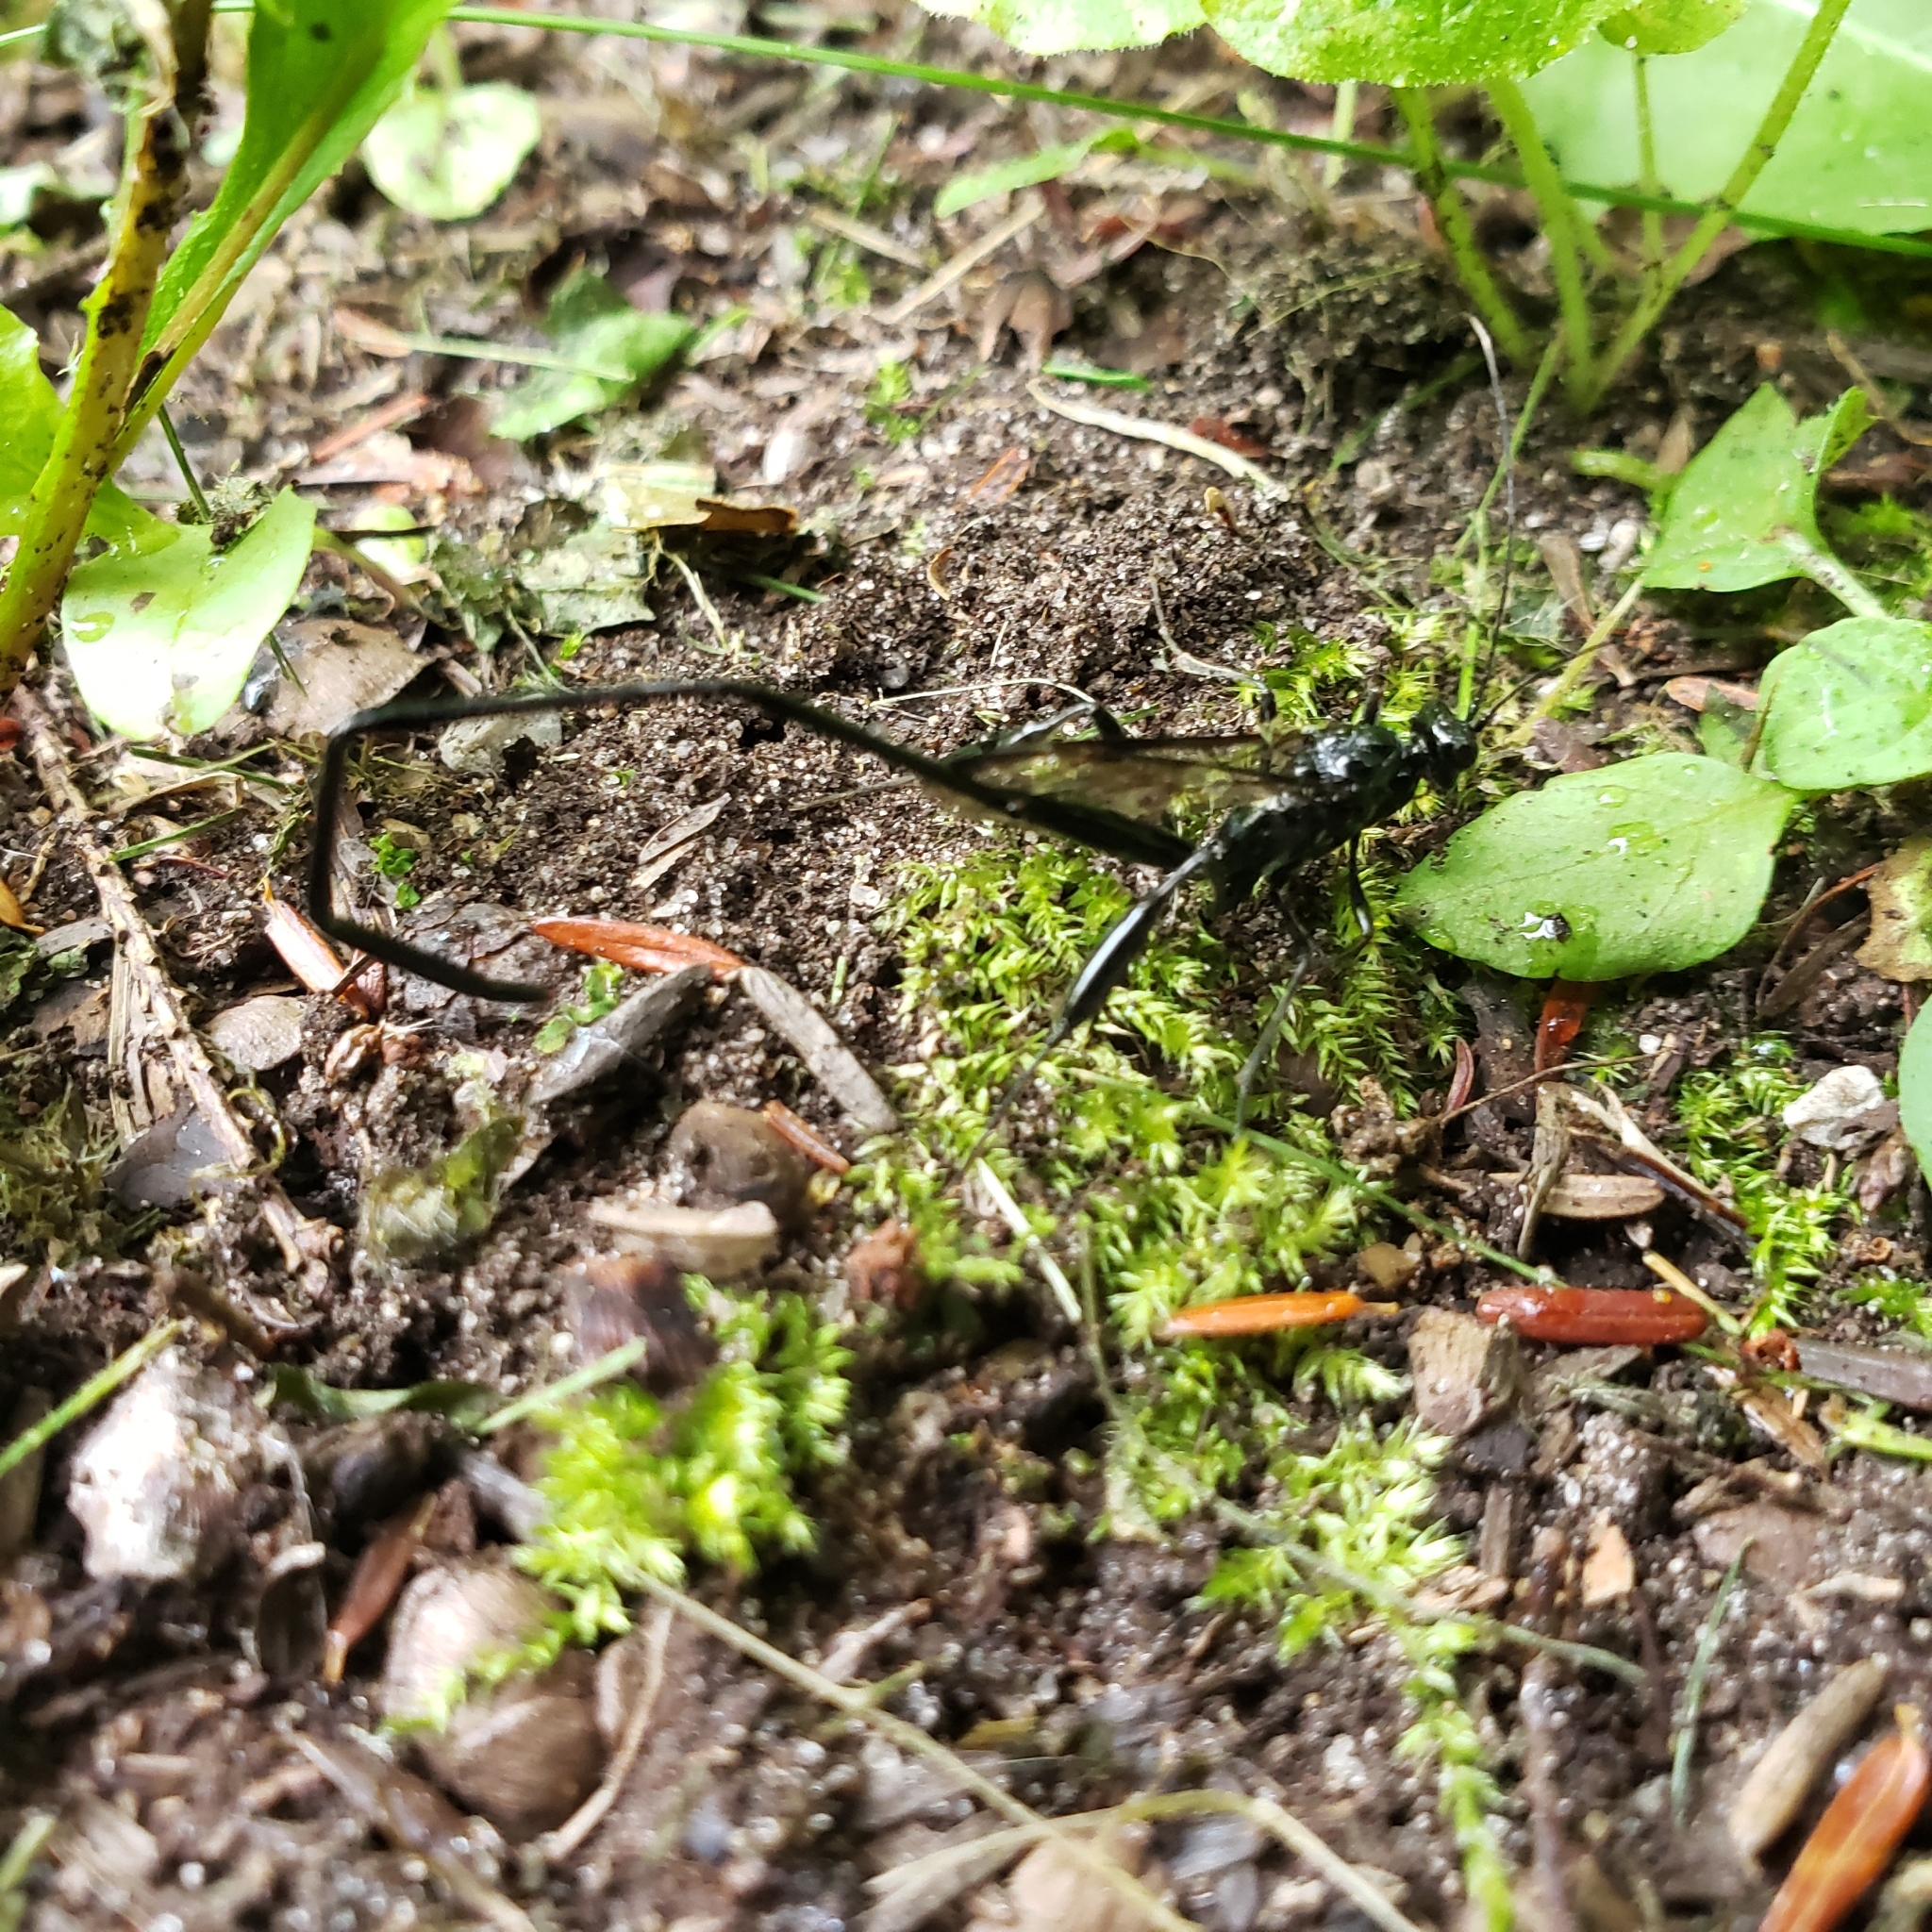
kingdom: Animalia
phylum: Arthropoda
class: Insecta
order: Hymenoptera
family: Pelecinidae
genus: Pelecinus
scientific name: Pelecinus polyturator
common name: American pelecinid wasp
